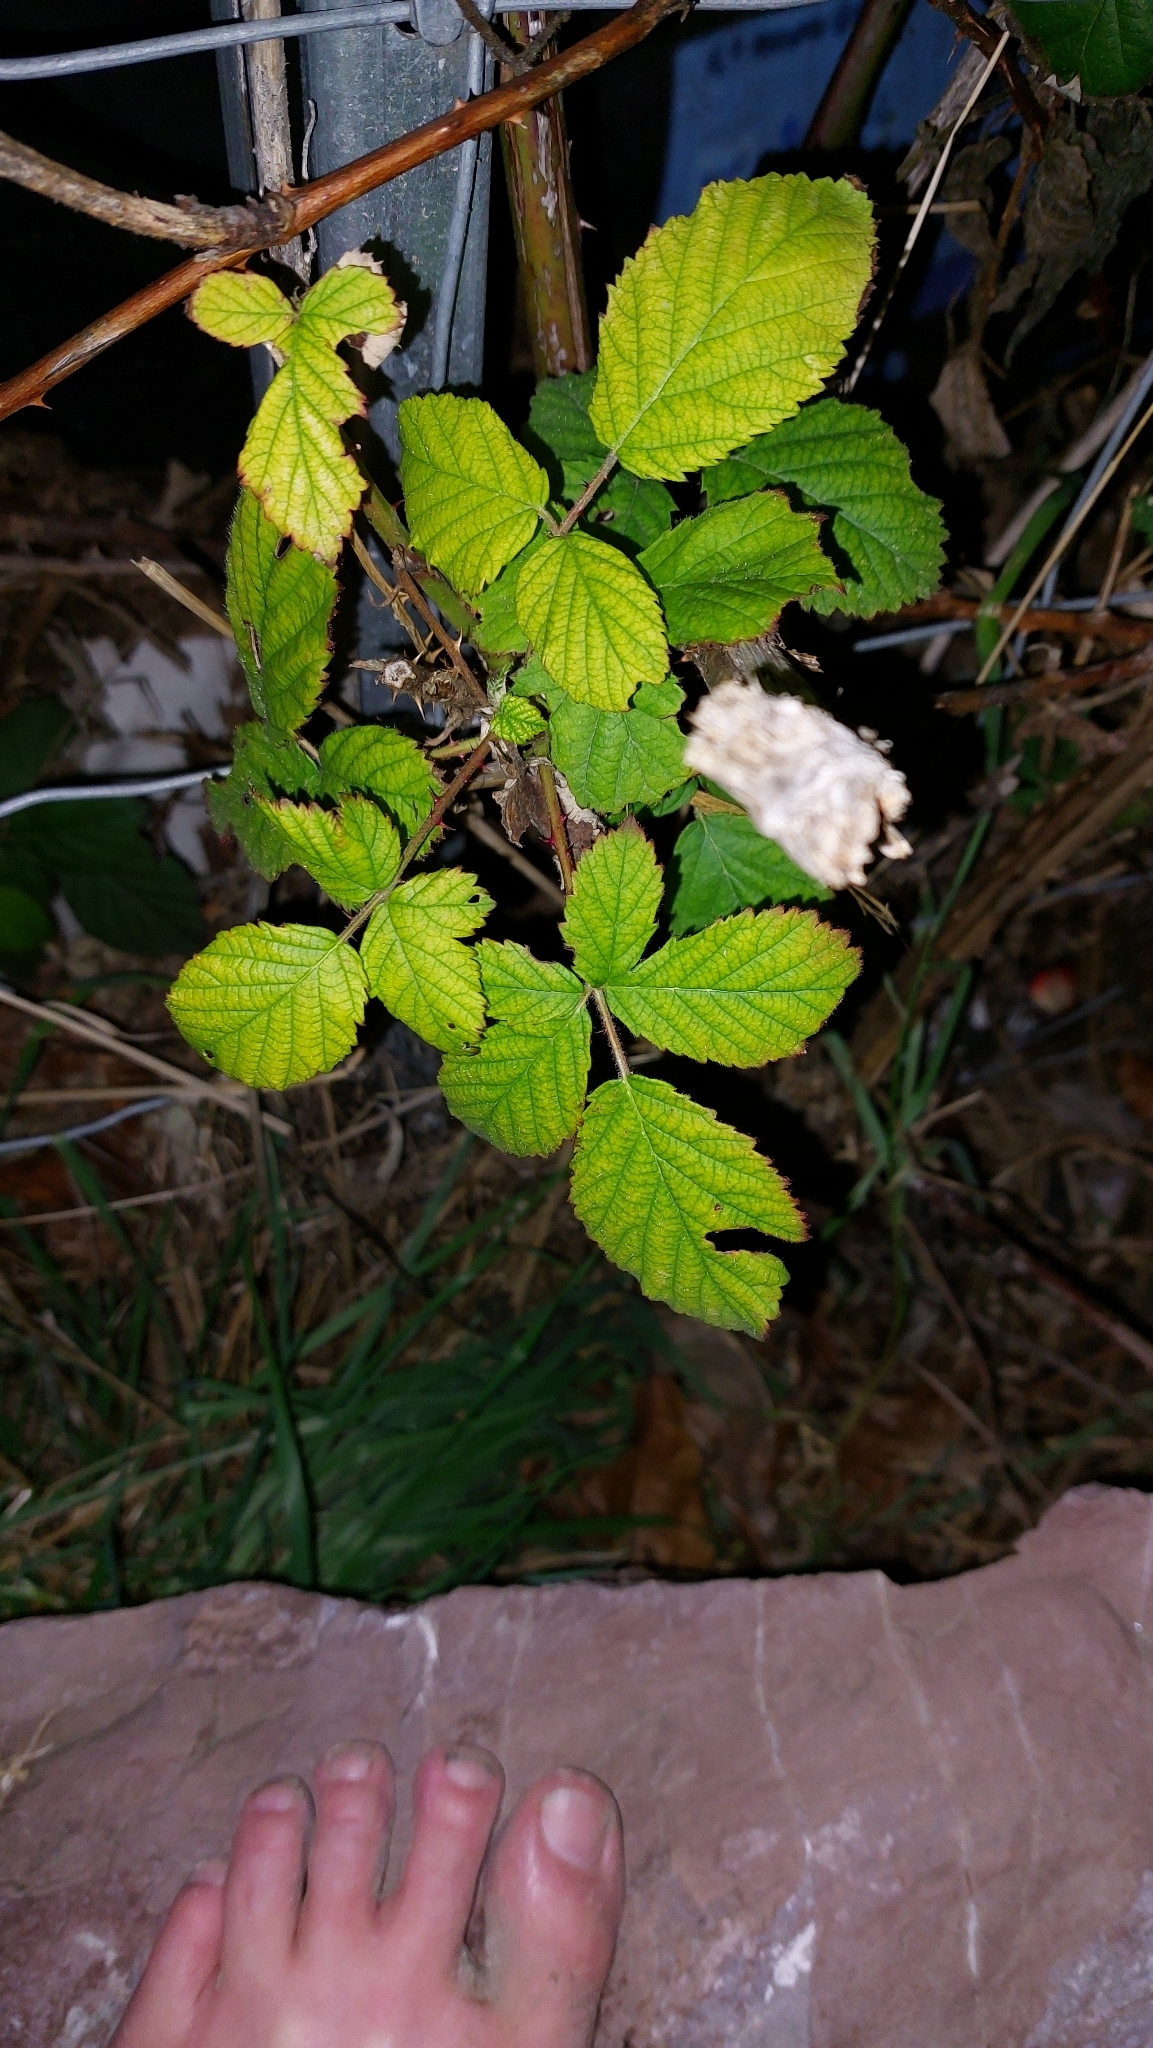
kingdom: Plantae
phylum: Tracheophyta
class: Magnoliopsida
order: Rosales
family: Rosaceae
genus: Rubus
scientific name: Rubus
